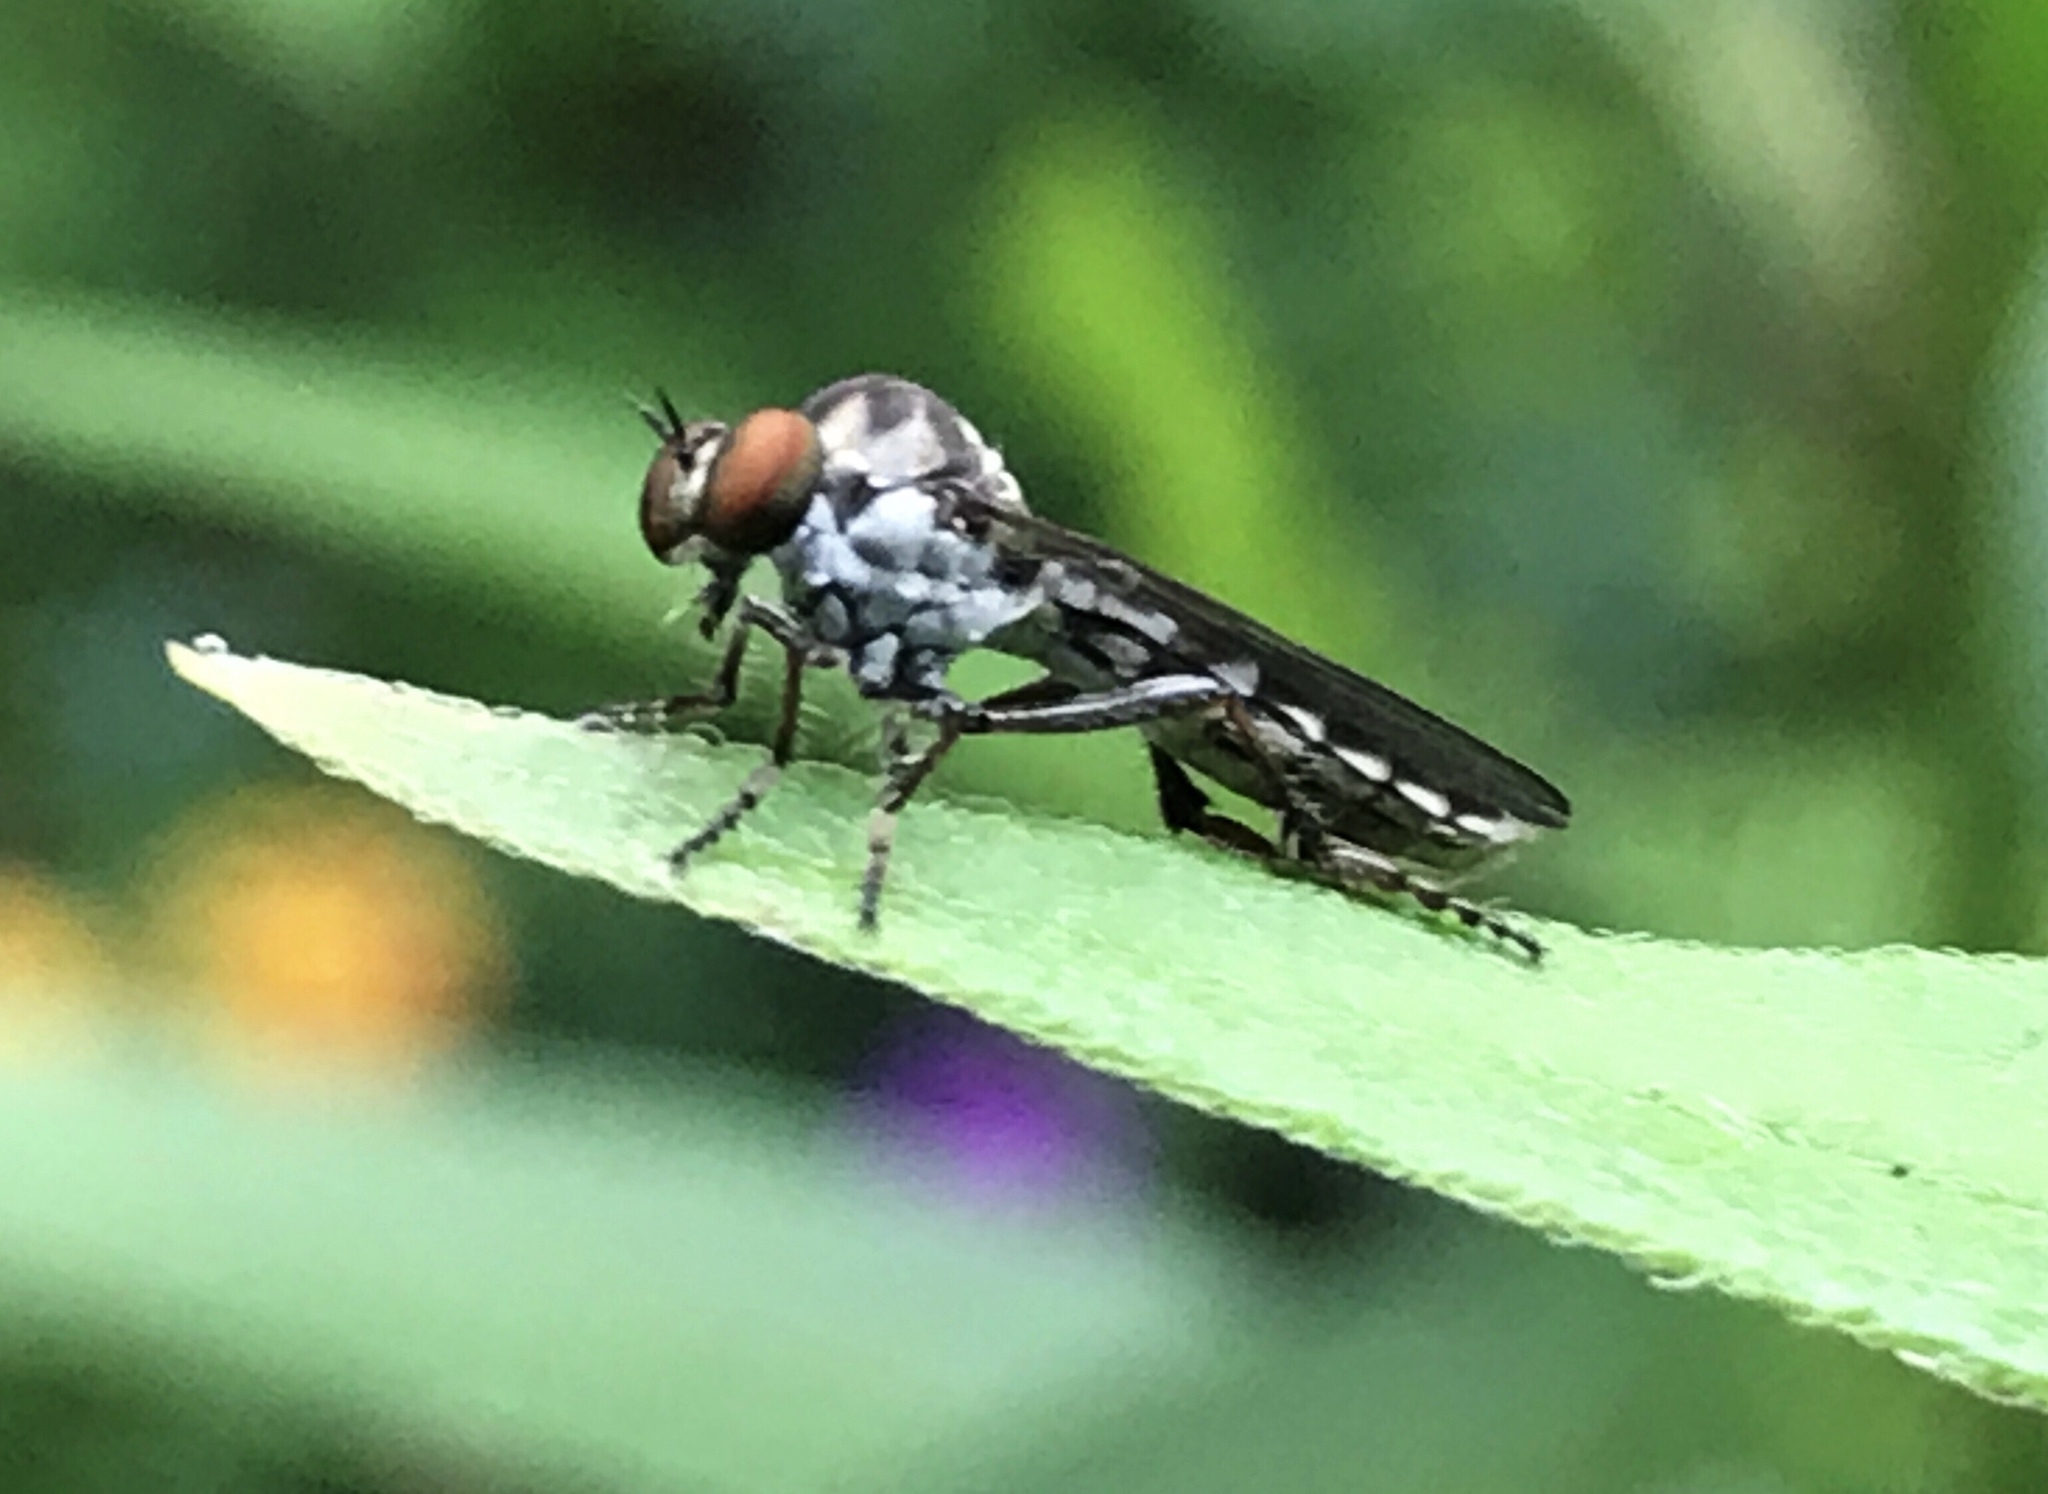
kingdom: Animalia
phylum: Arthropoda
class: Insecta
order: Diptera
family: Asilidae
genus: Holcocephala
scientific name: Holcocephala calva
